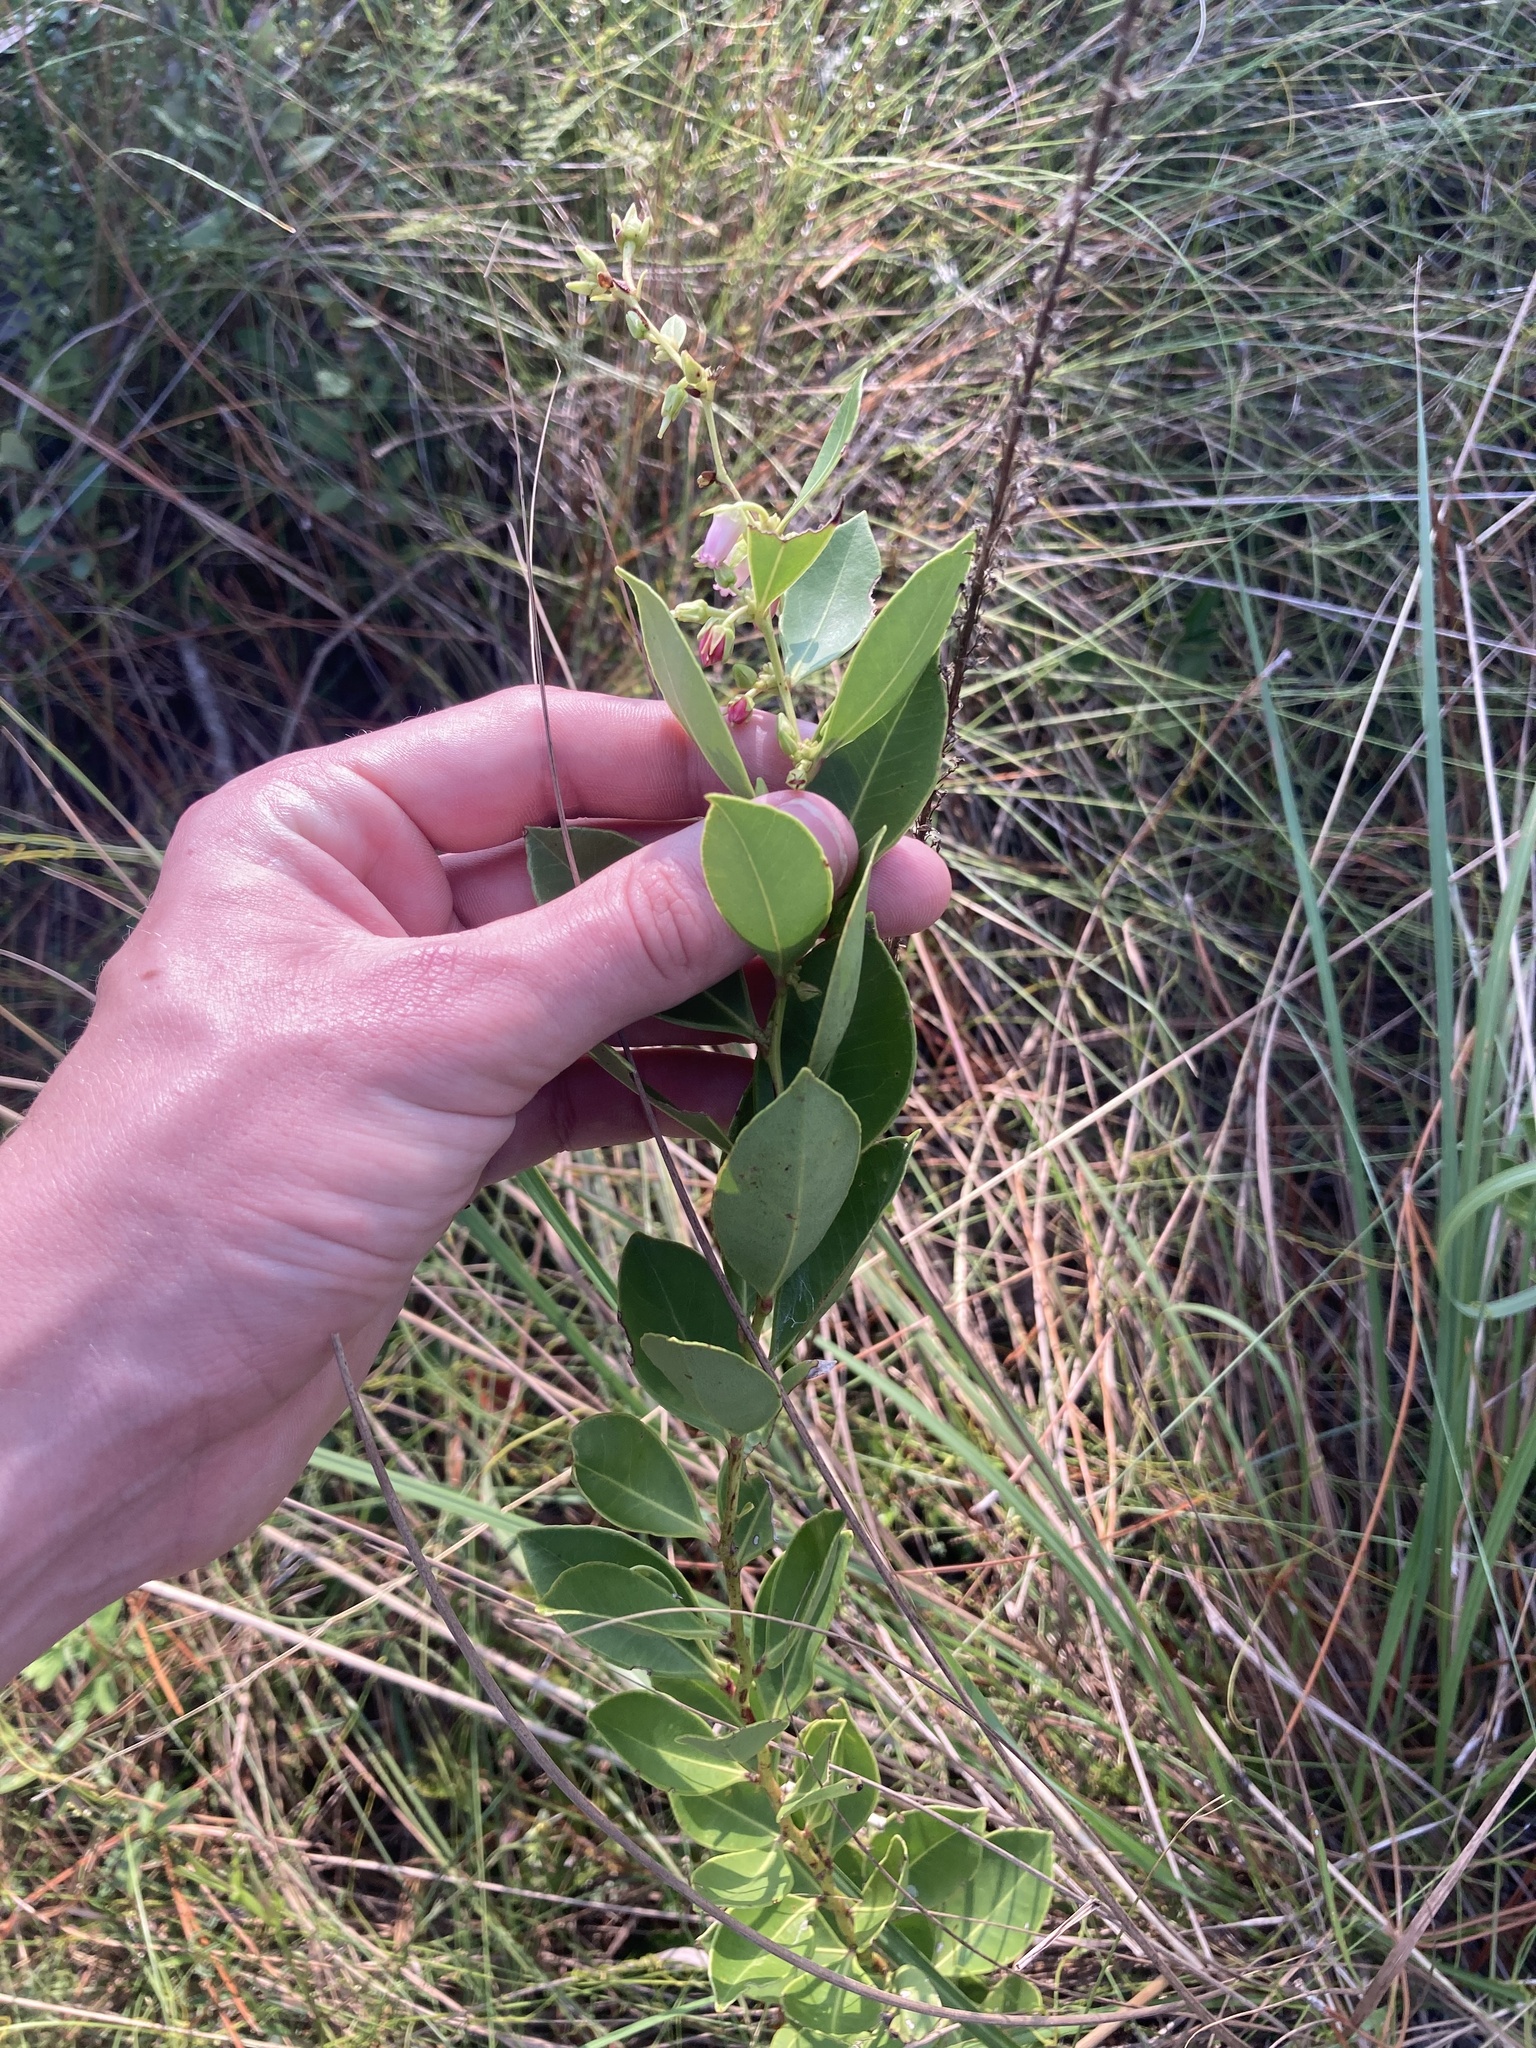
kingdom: Plantae
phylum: Tracheophyta
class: Magnoliopsida
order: Ericales
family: Ericaceae
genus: Lyonia
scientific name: Lyonia lucida
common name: Fetterbush
